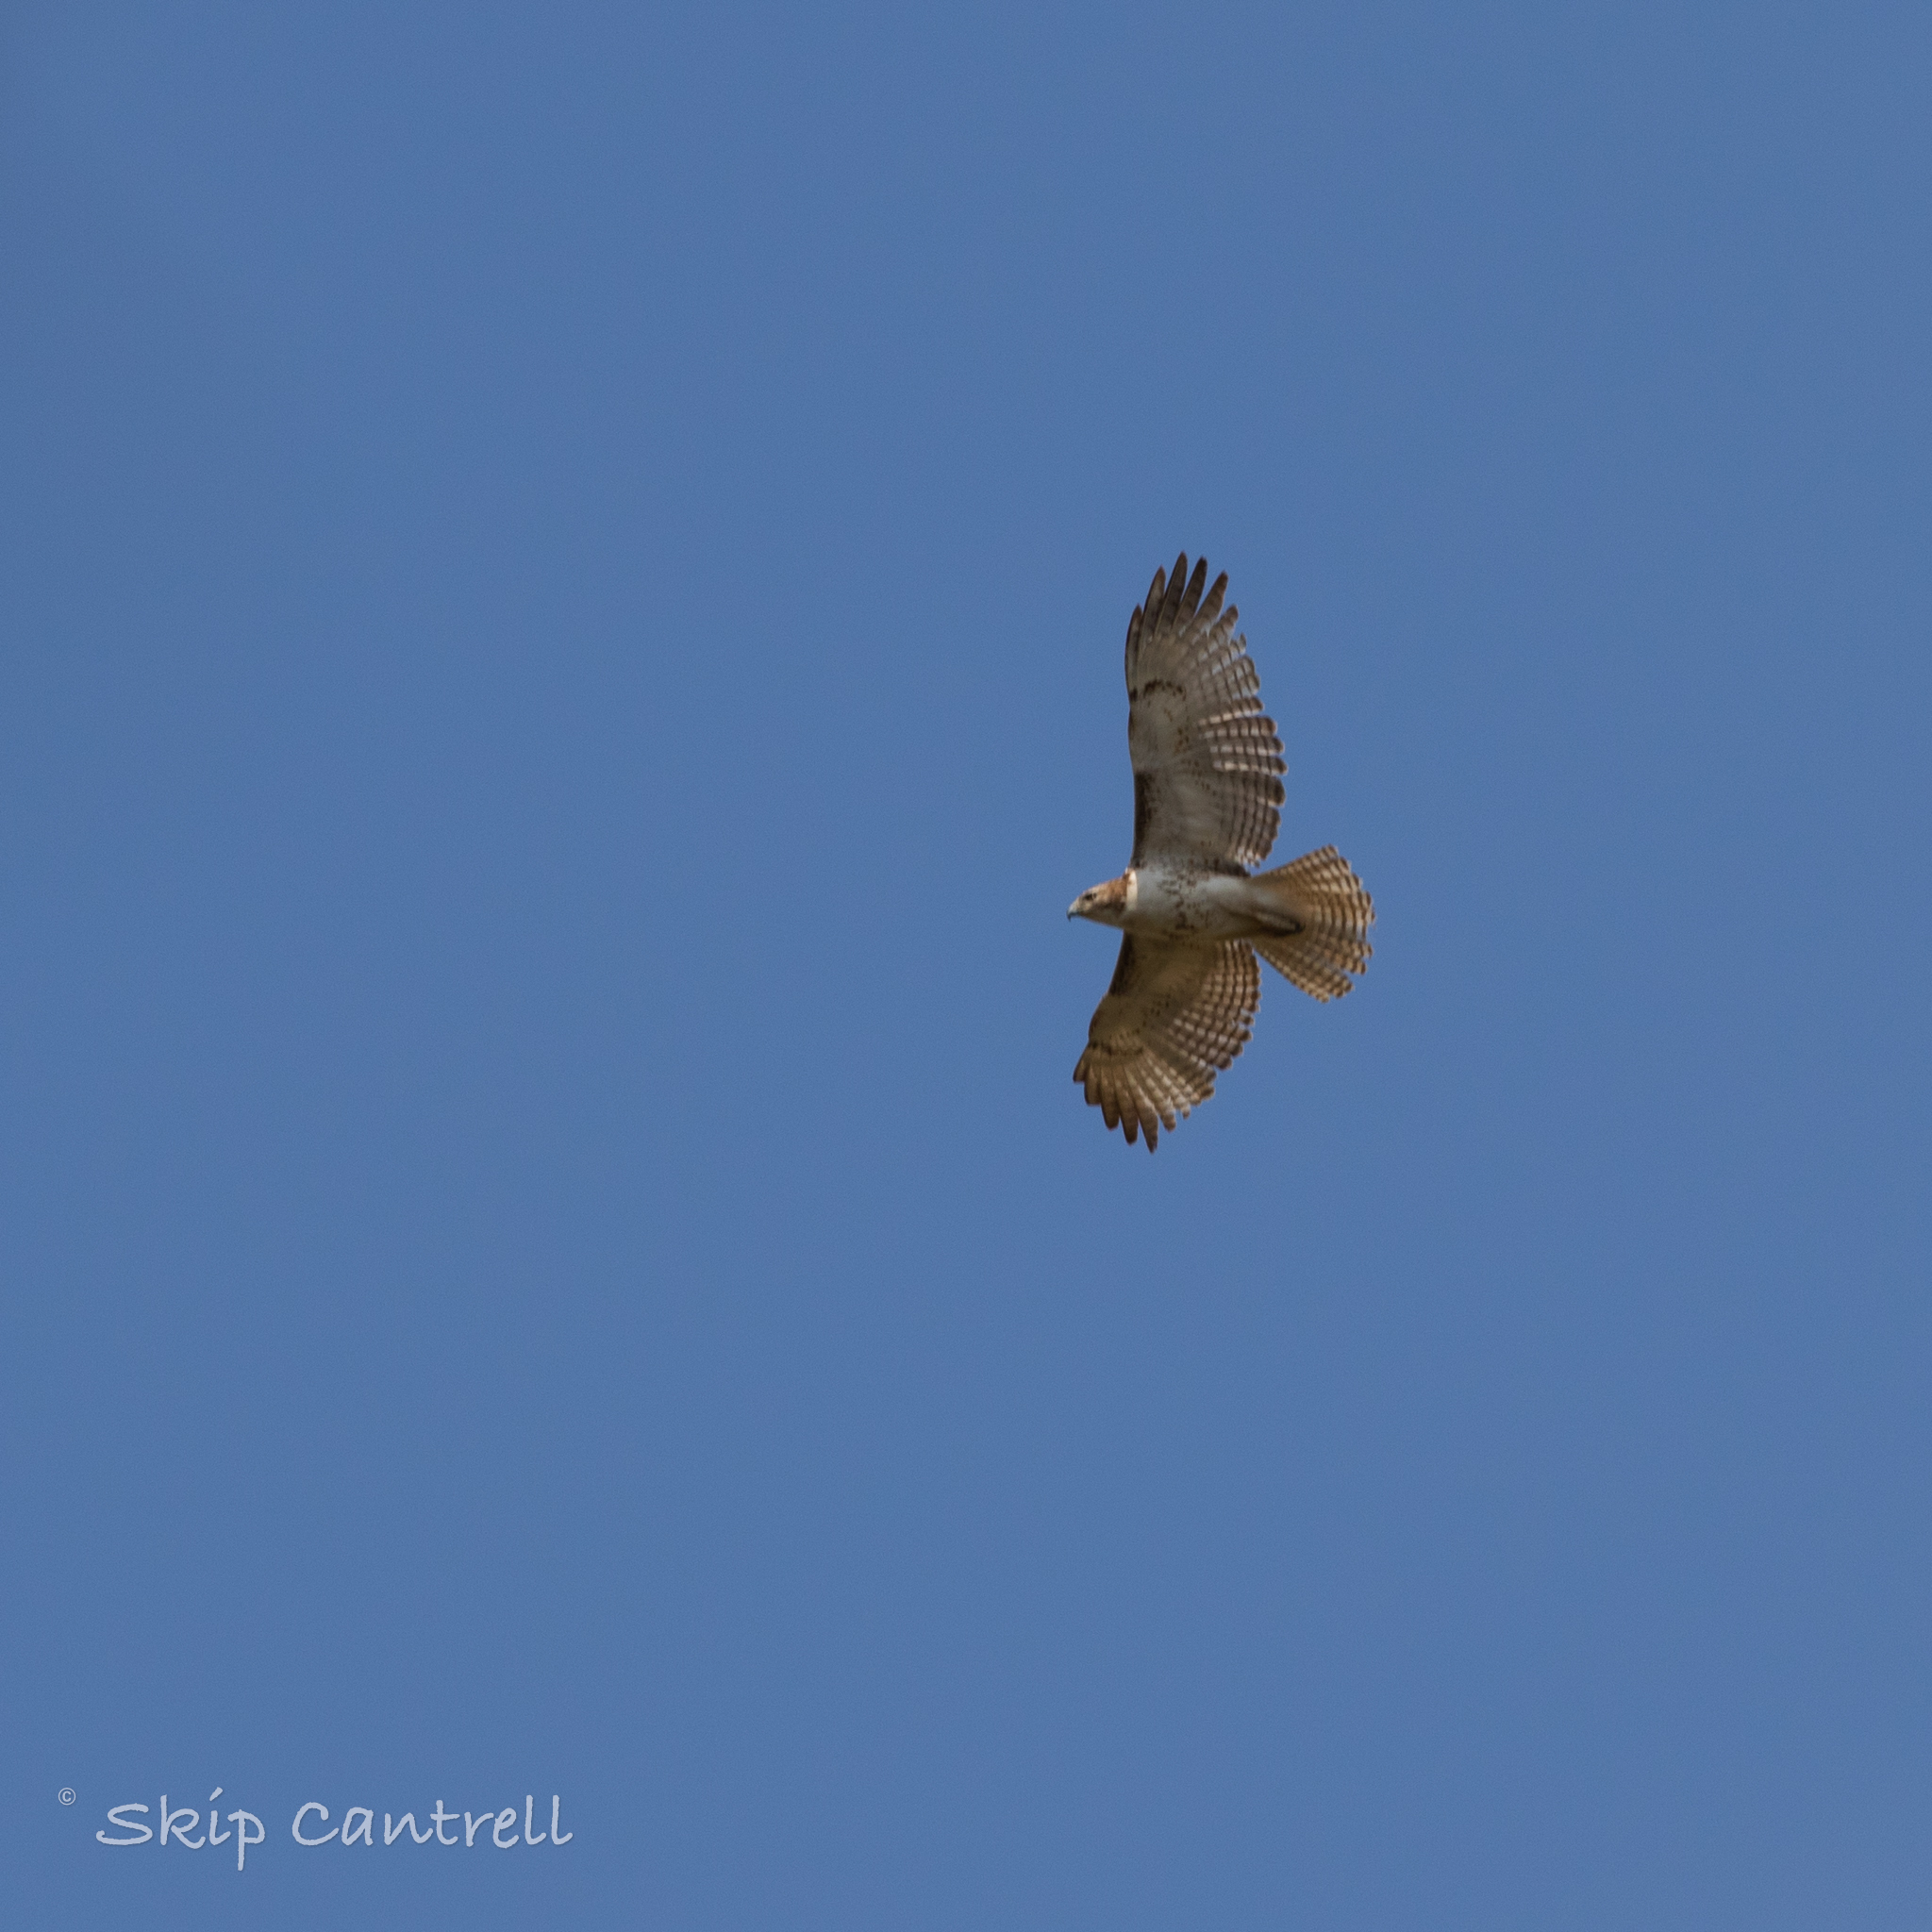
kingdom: Animalia
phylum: Chordata
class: Aves
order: Accipitriformes
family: Accipitridae
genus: Buteo
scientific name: Buteo jamaicensis
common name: Red-tailed hawk
